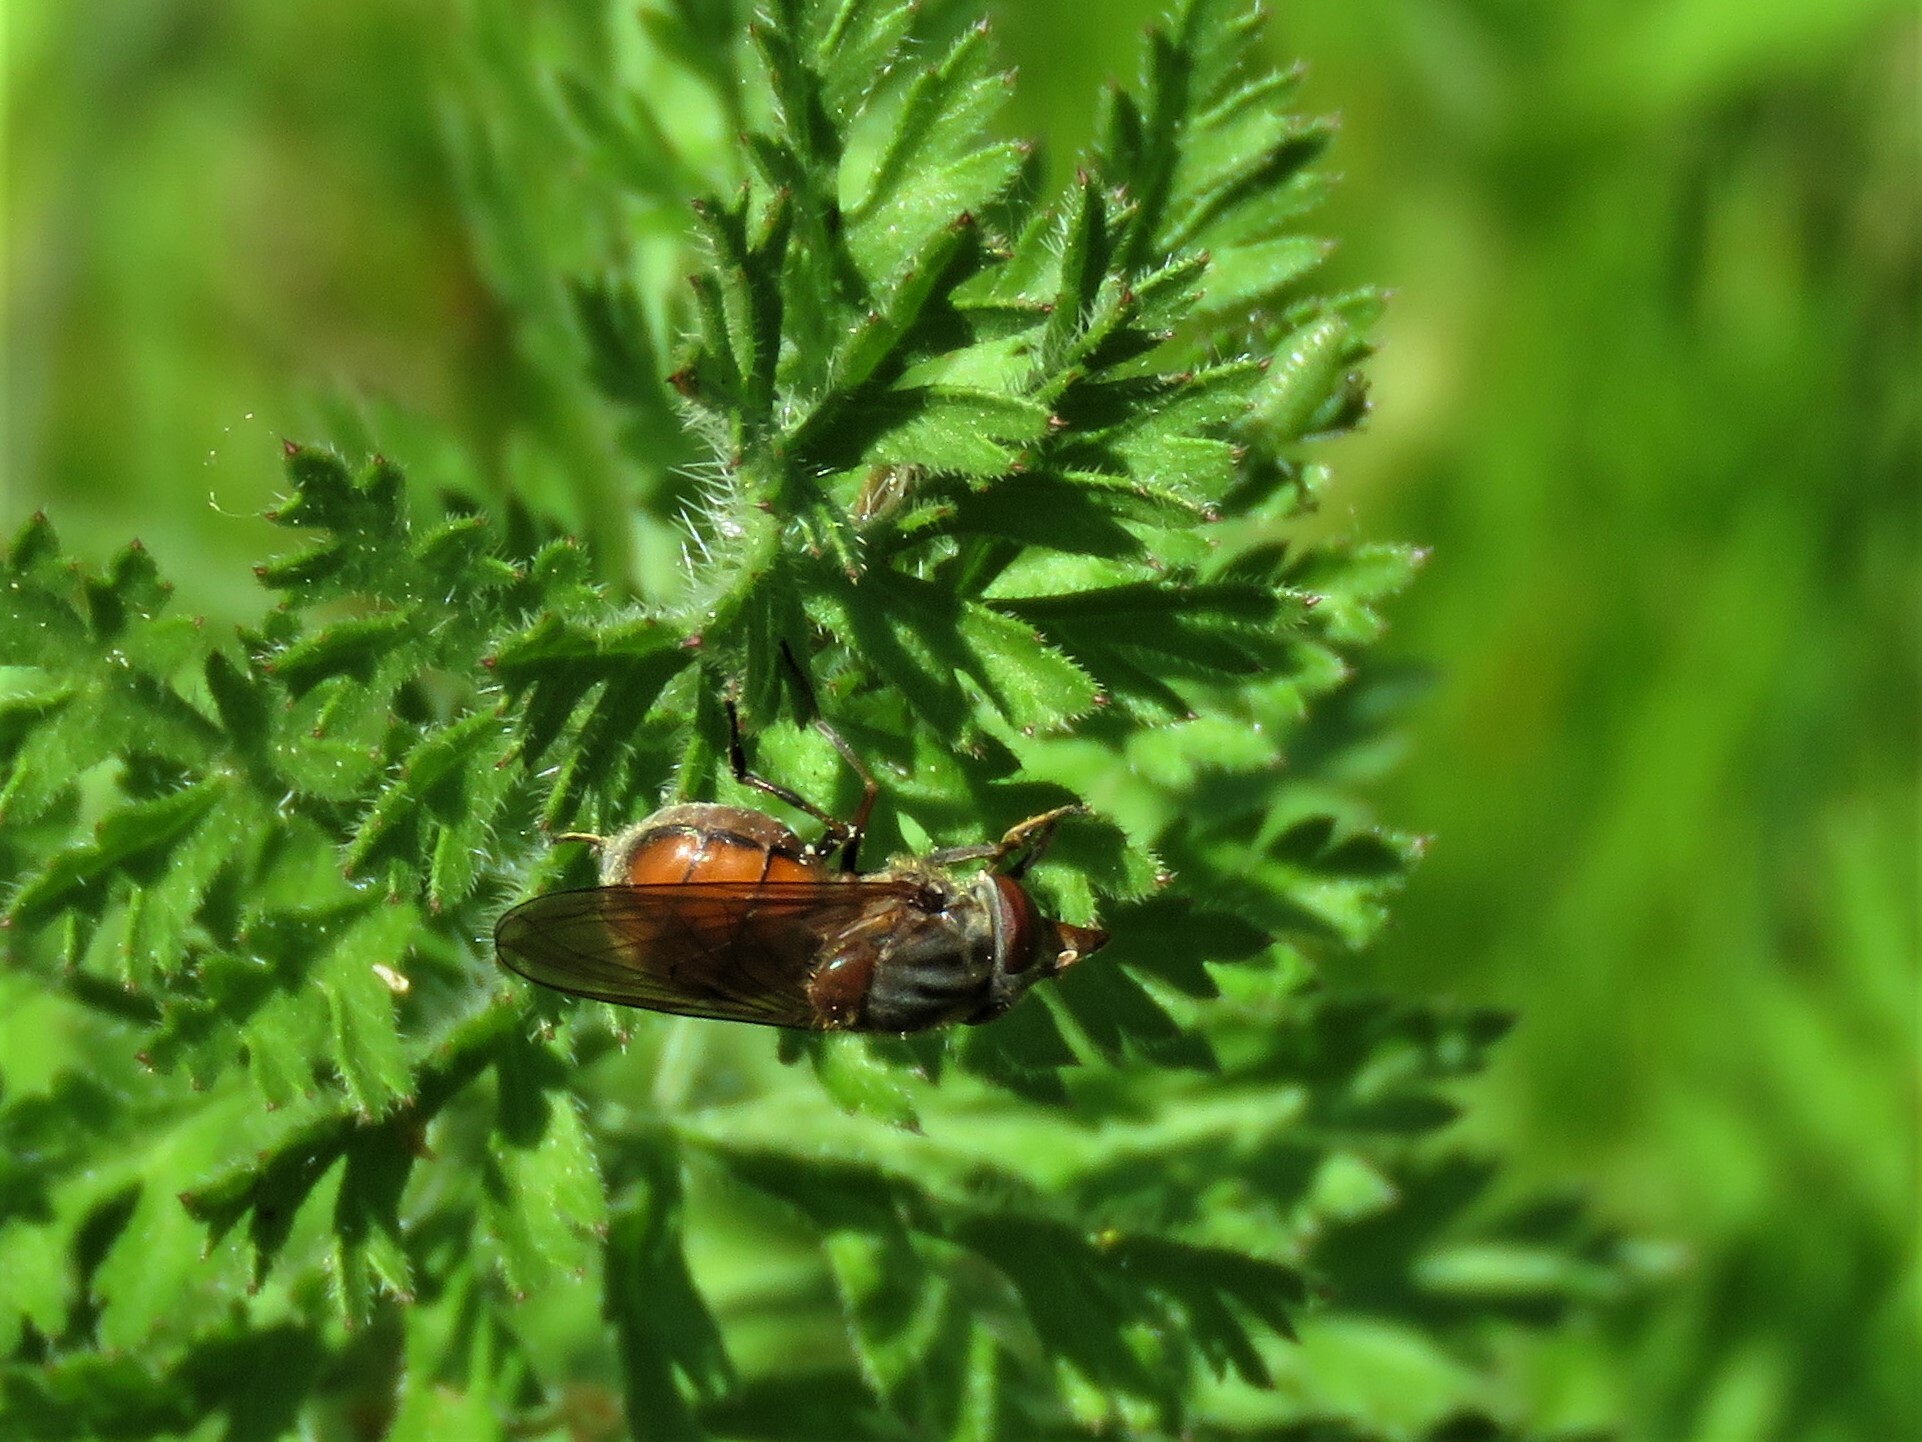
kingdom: Animalia
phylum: Arthropoda
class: Insecta
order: Diptera
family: Syrphidae
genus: Rhingia
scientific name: Rhingia campestris
